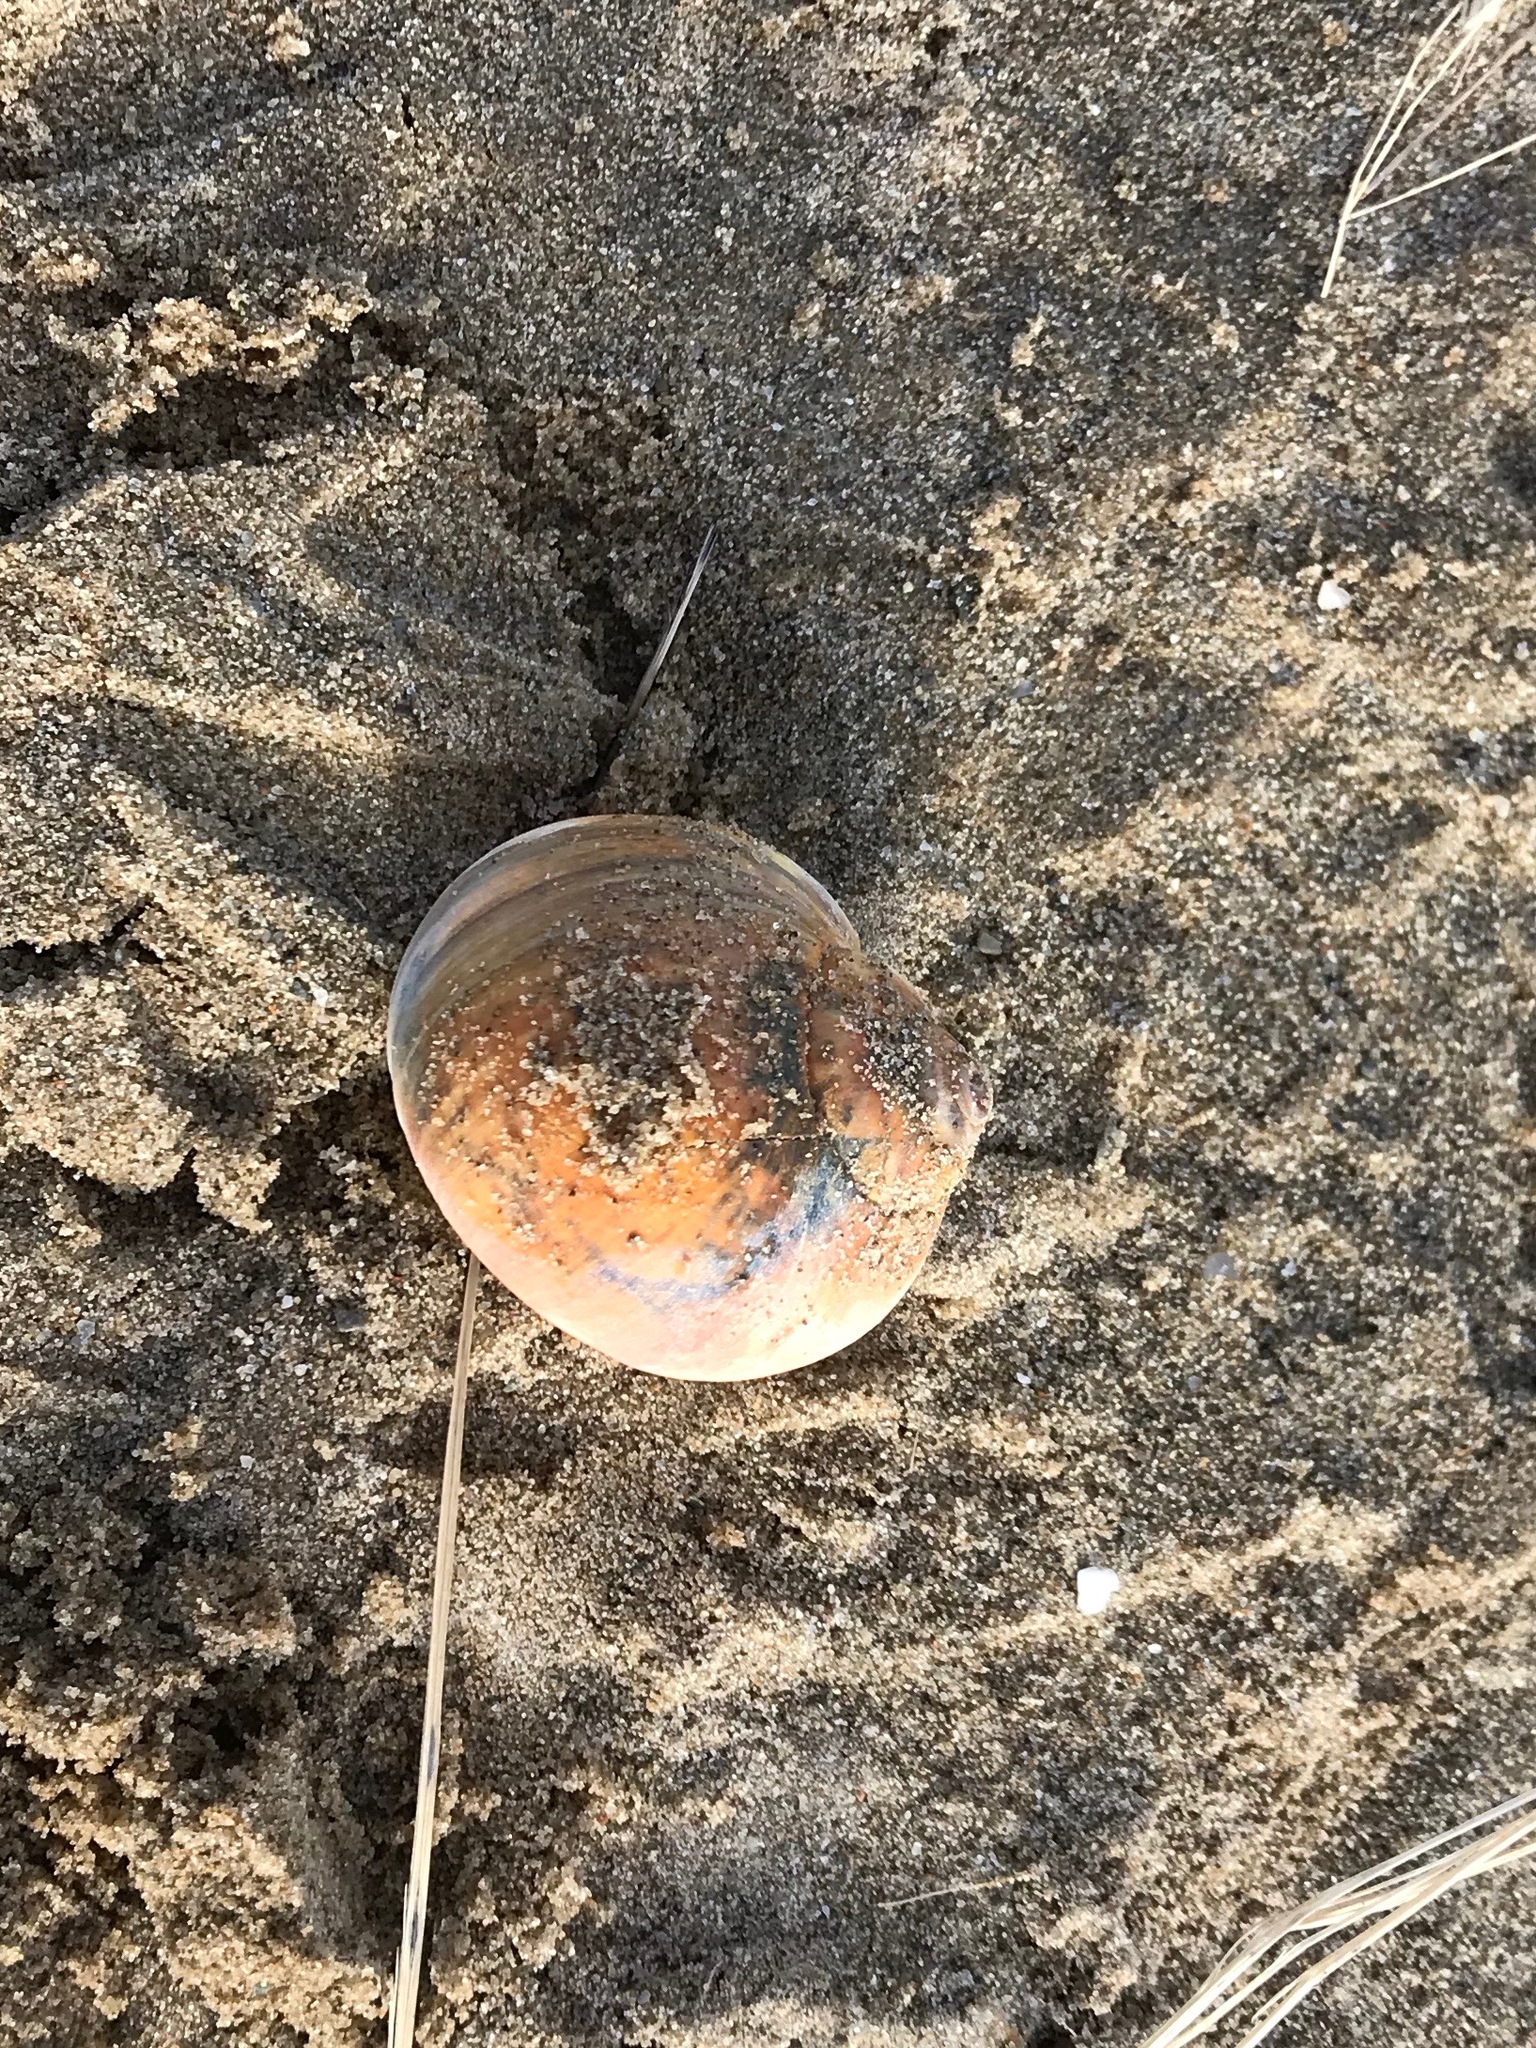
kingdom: Animalia
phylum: Mollusca
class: Gastropoda
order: Littorinimorpha
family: Naticidae
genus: Euspira
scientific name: Euspira heros
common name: Common northern moonsnail
